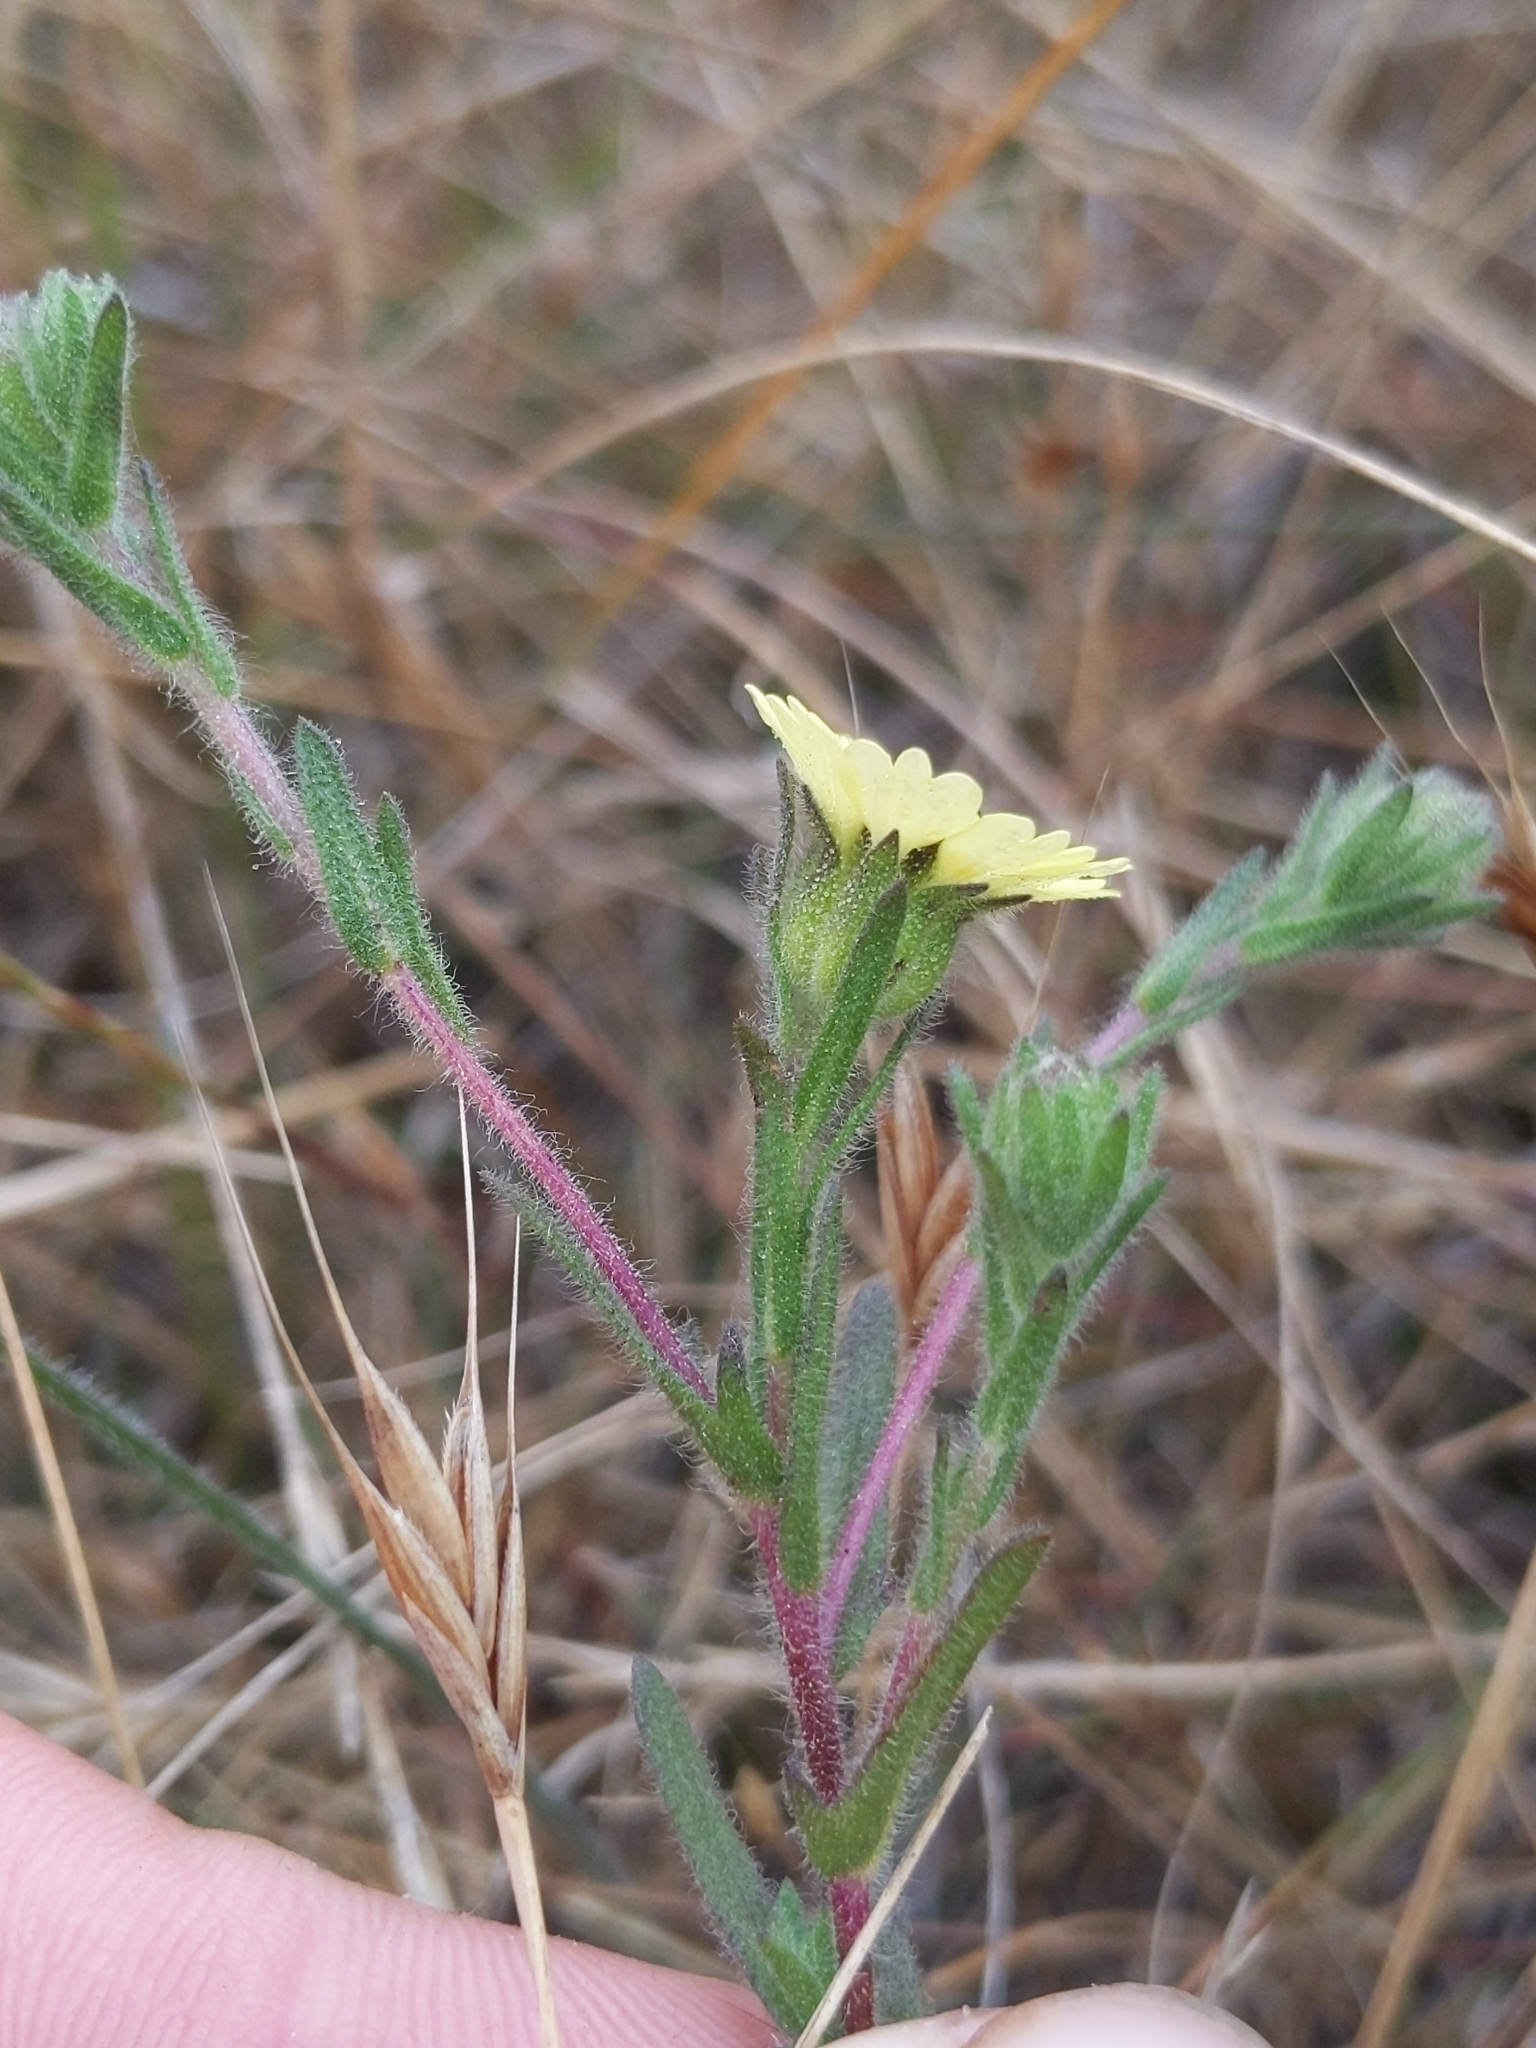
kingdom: Plantae
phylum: Tracheophyta
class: Magnoliopsida
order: Asterales
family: Asteraceae
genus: Deinandra
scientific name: Deinandra increscens
